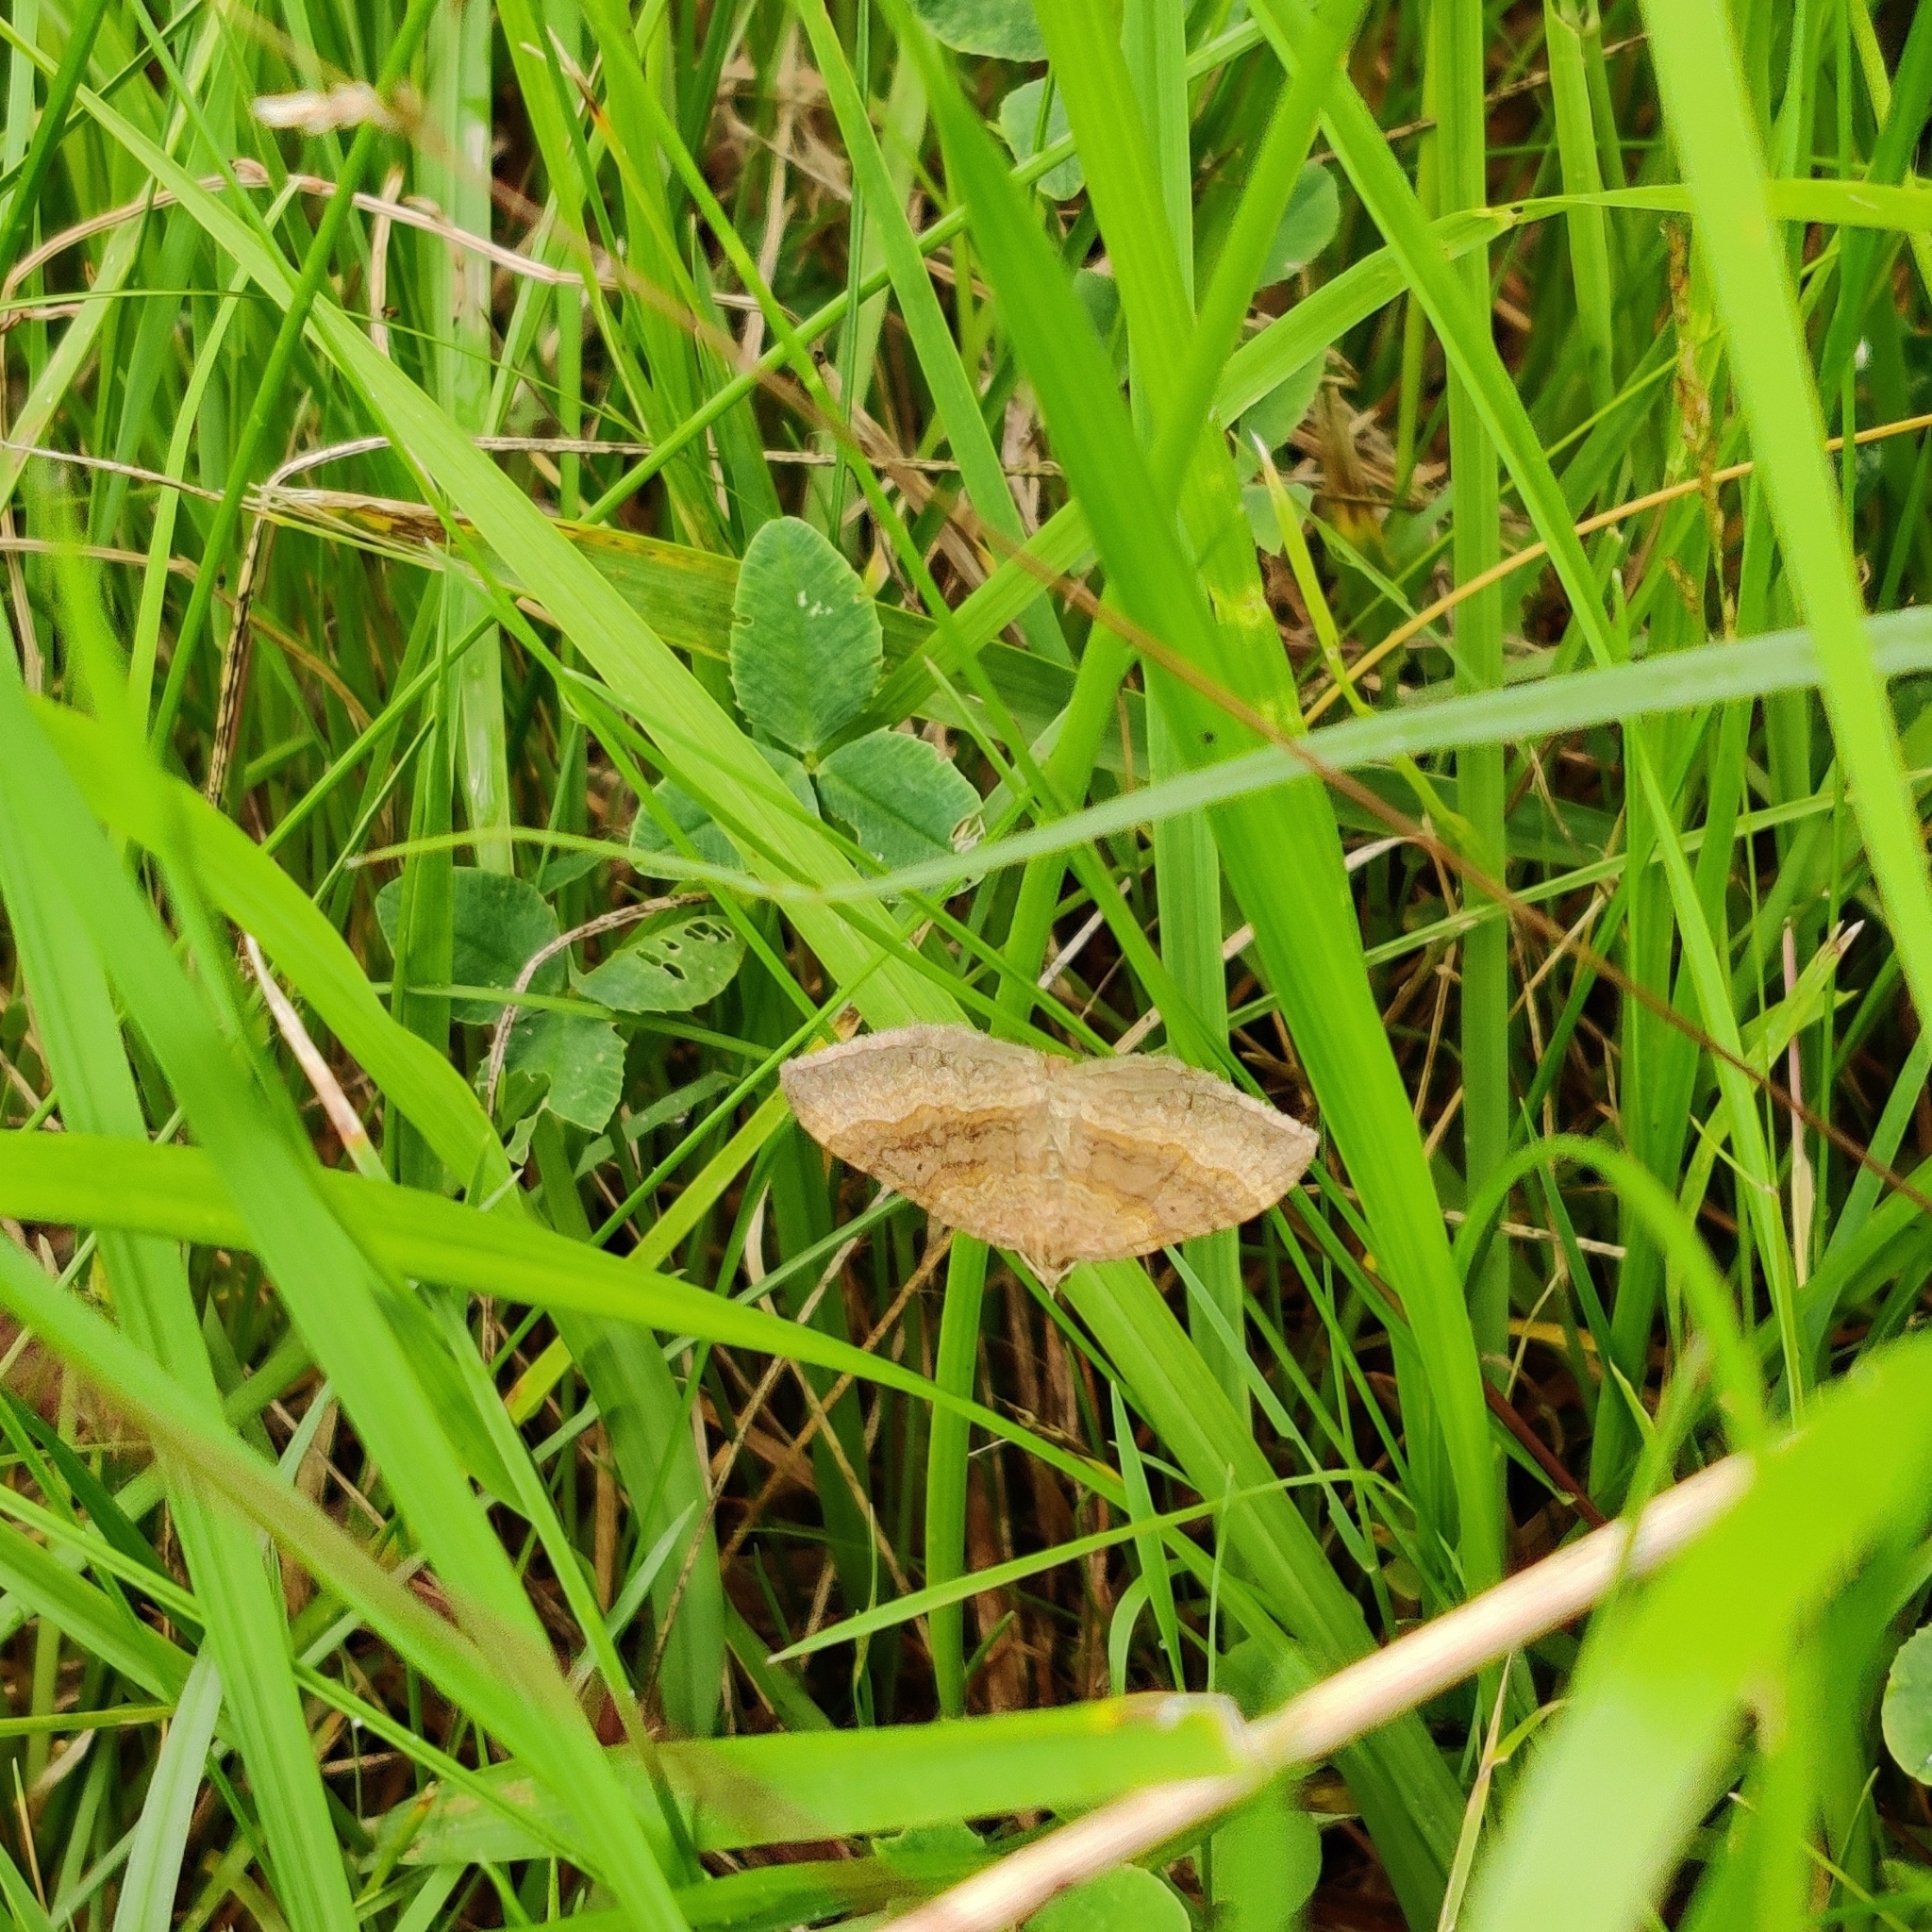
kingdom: Animalia
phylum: Arthropoda
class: Insecta
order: Lepidoptera
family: Geometridae
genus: Scotopteryx
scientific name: Scotopteryx chenopodiata
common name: Shaded broad-bar
